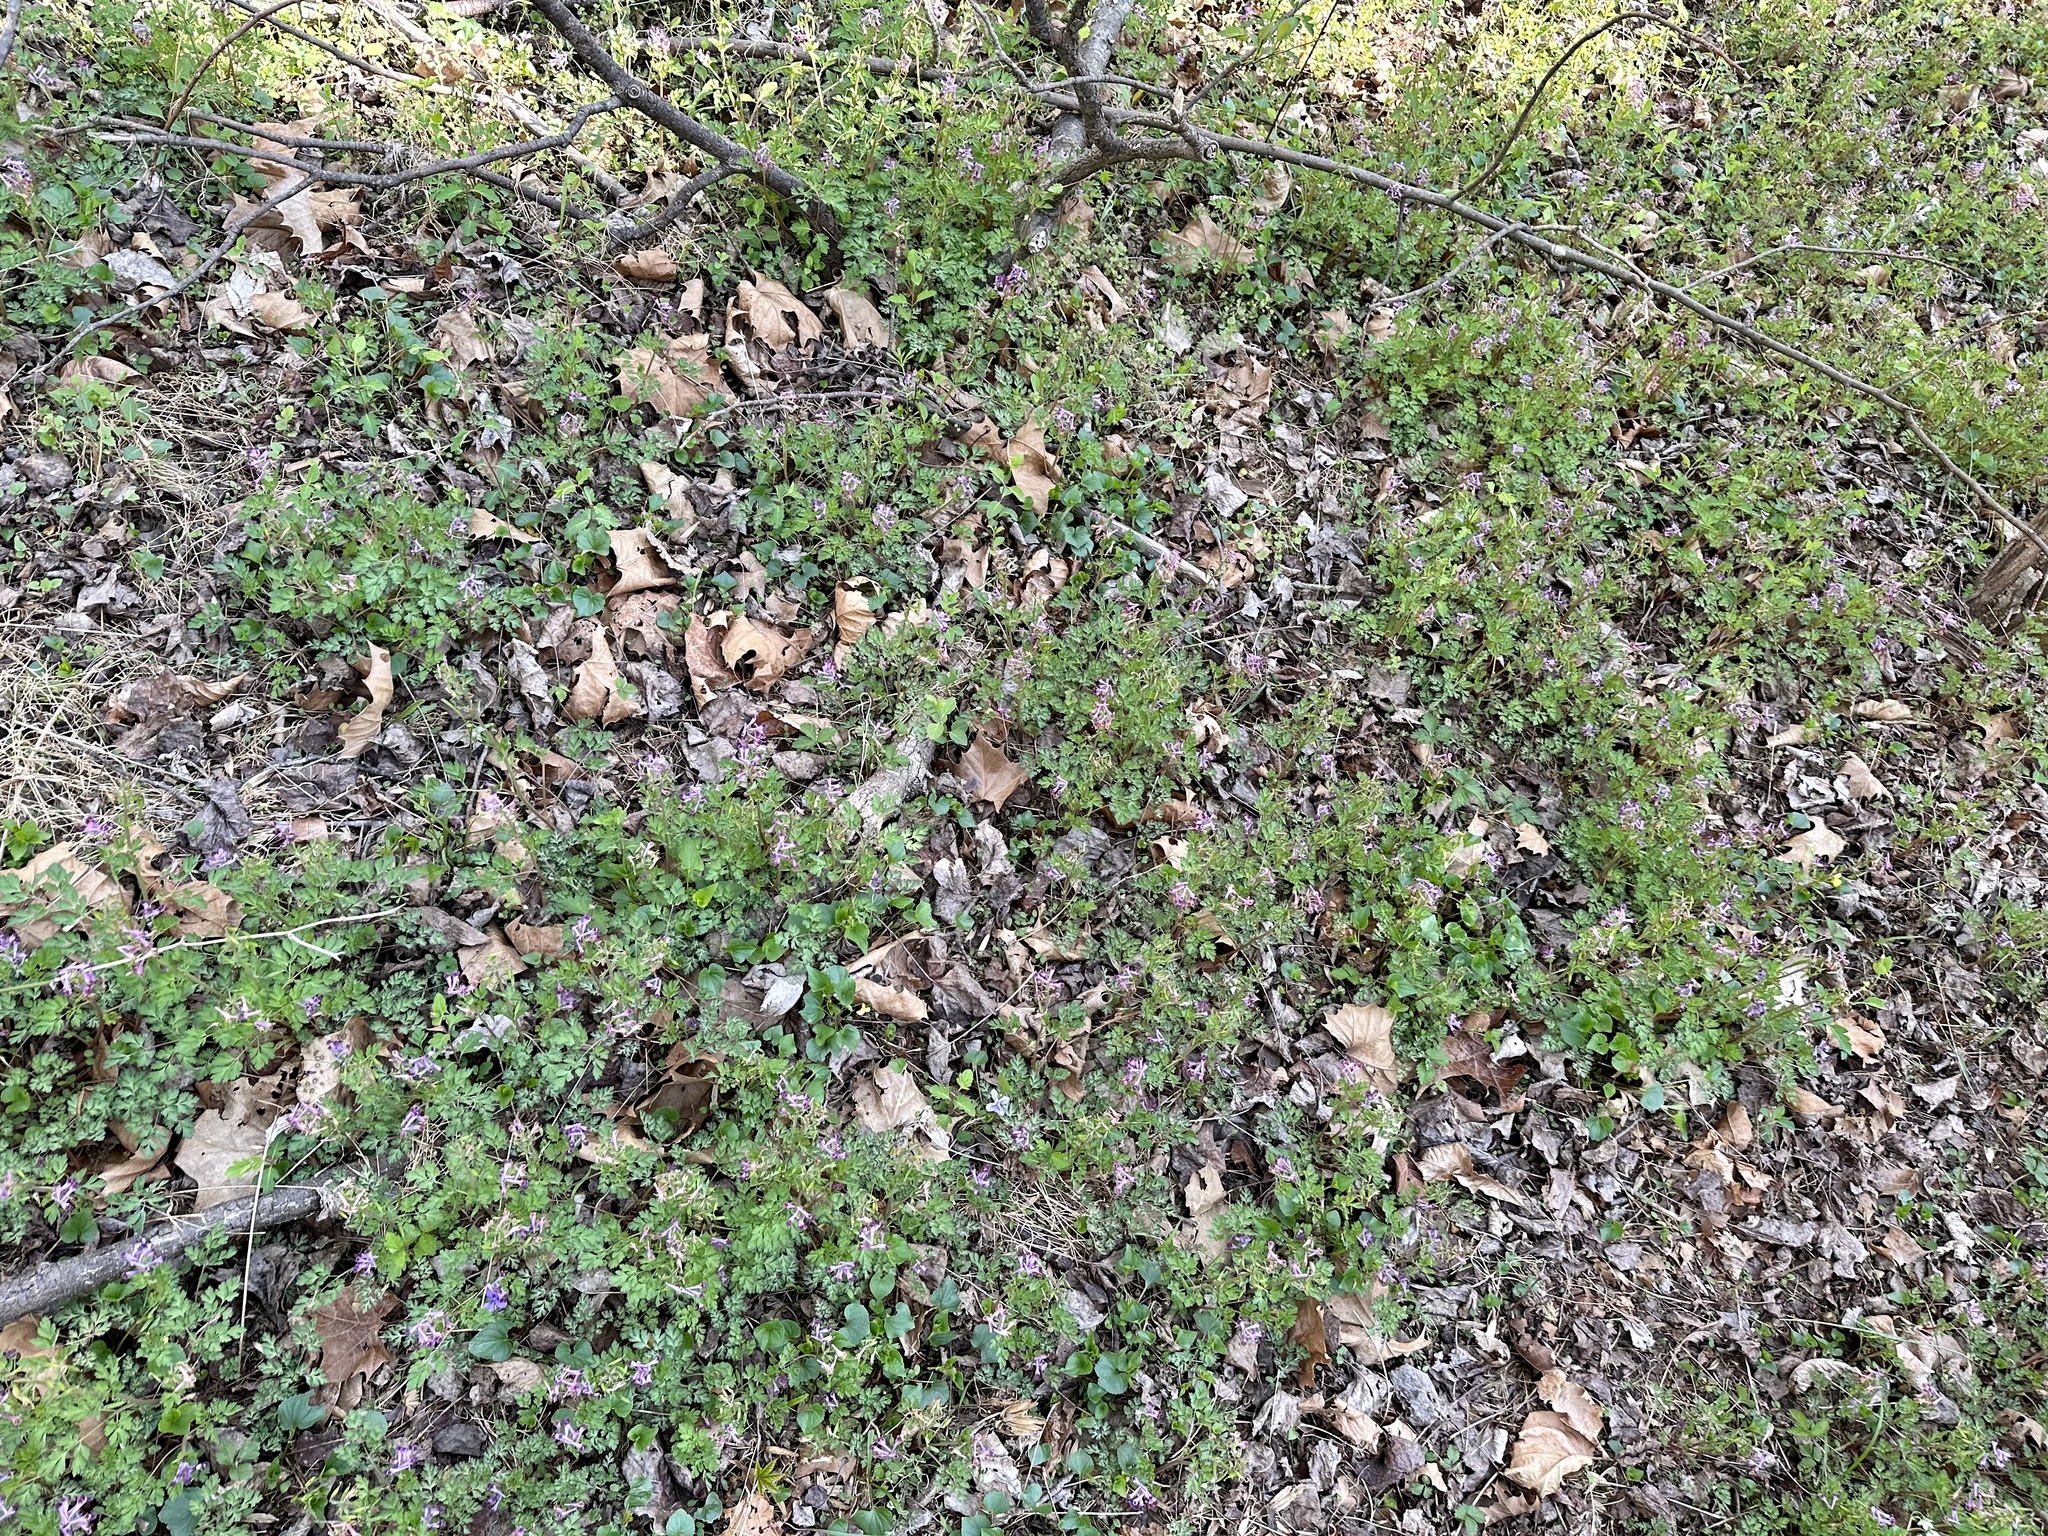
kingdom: Plantae
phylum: Tracheophyta
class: Magnoliopsida
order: Ranunculales
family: Papaveraceae
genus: Corydalis
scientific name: Corydalis incisa
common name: Incised fumewort
